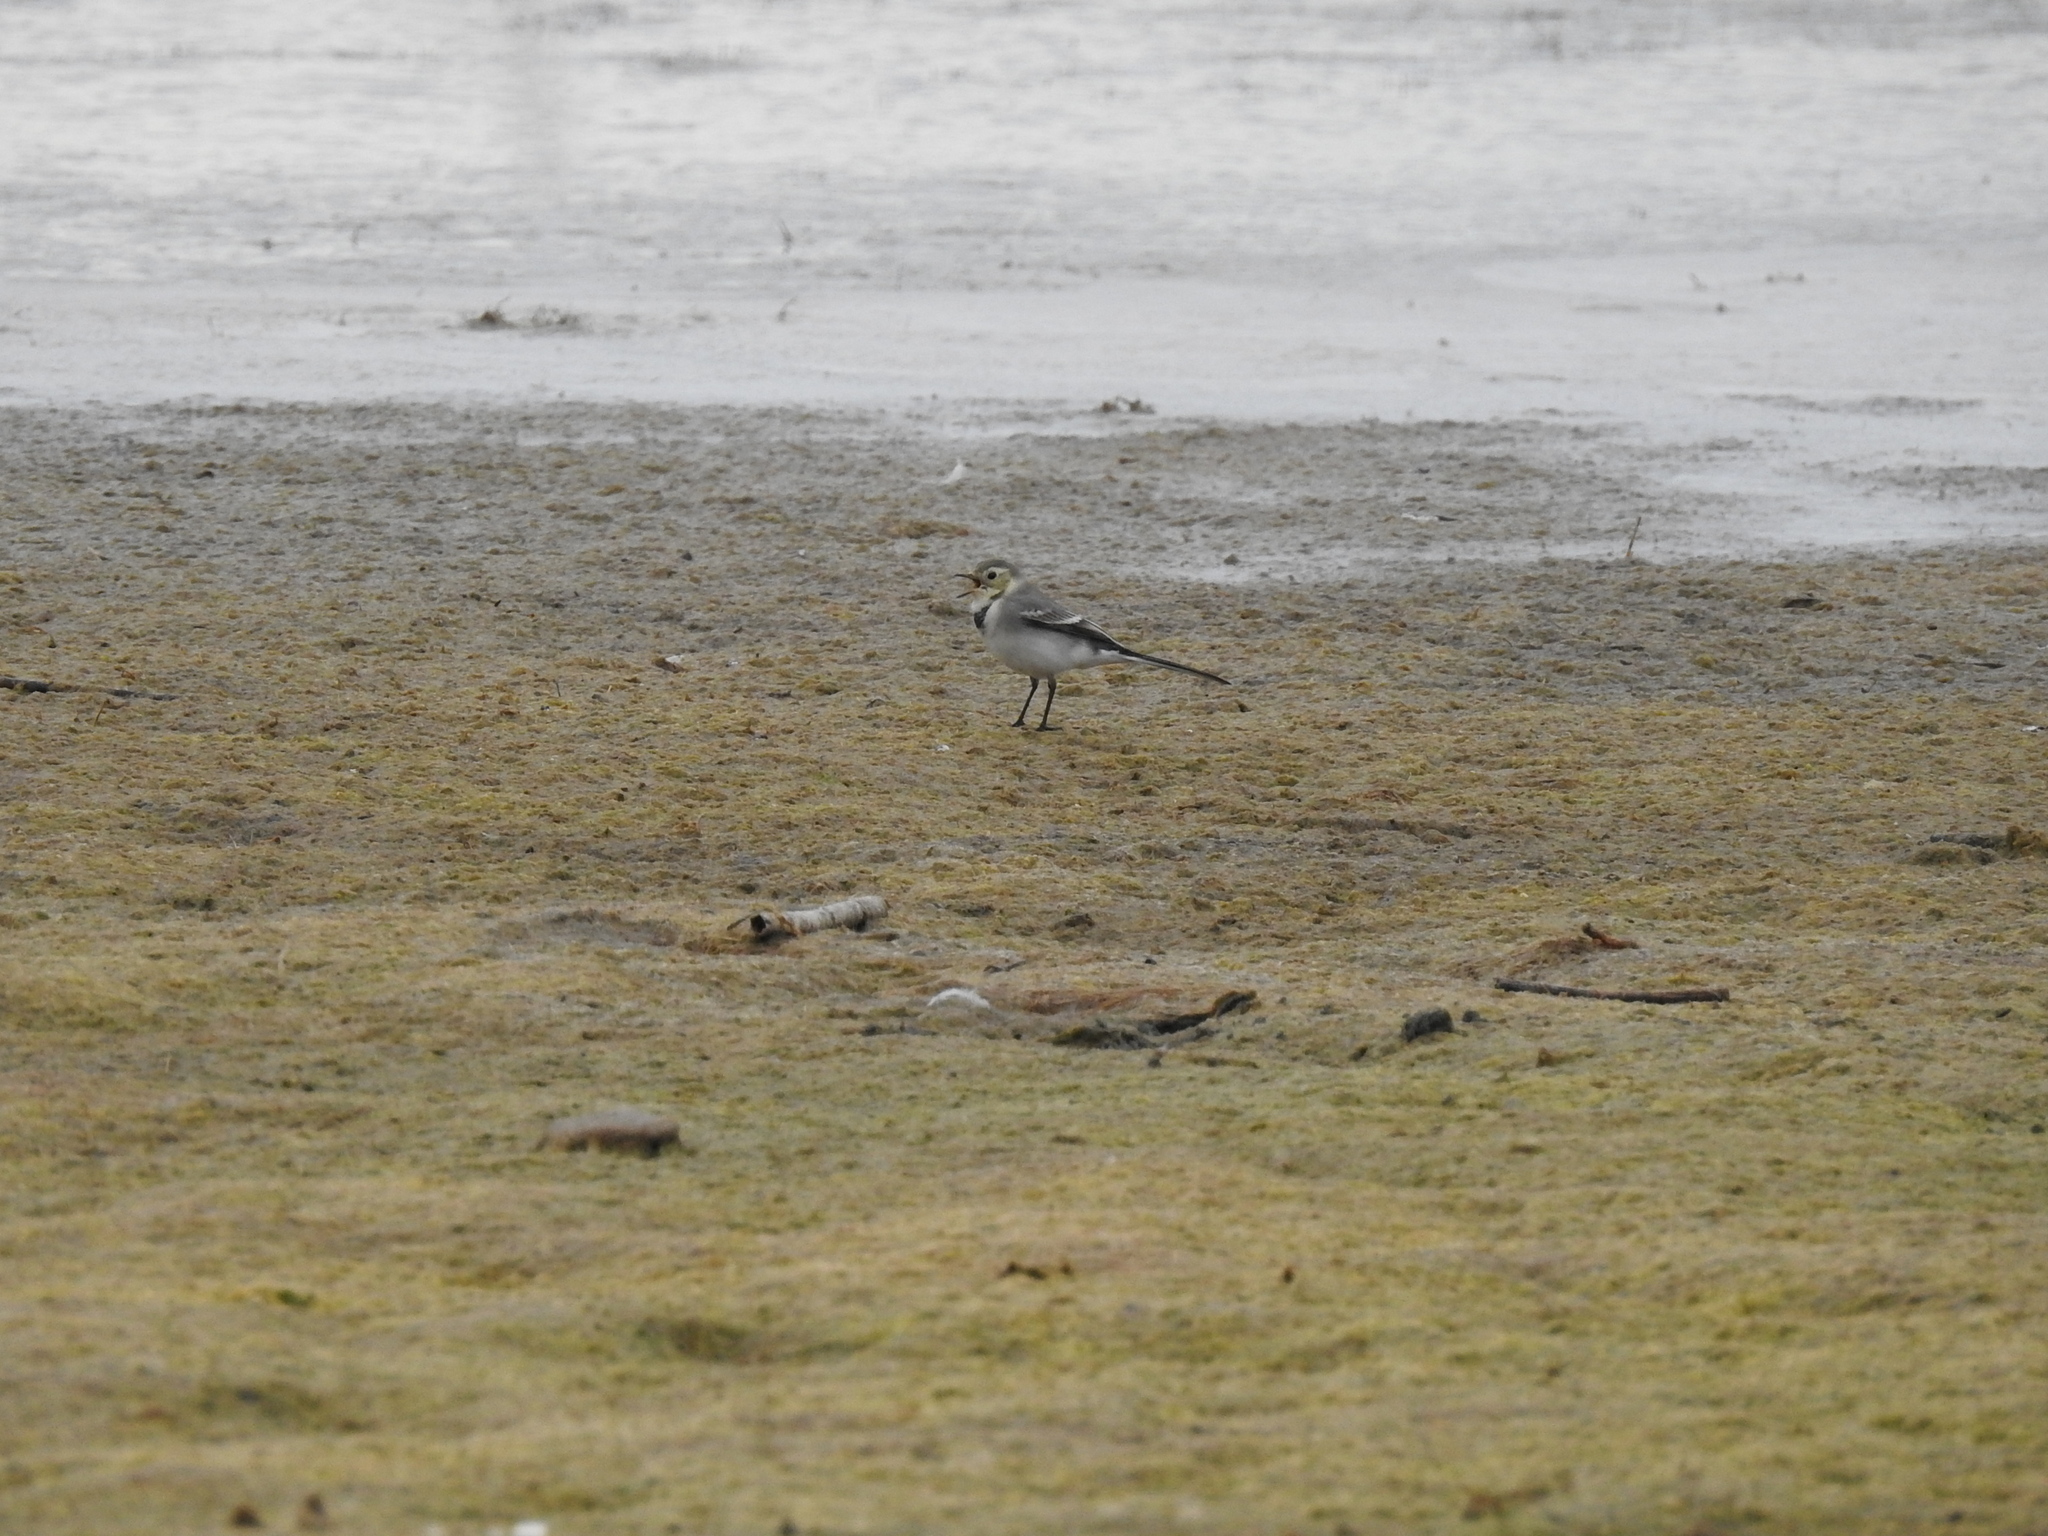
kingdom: Animalia
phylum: Chordata
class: Aves
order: Passeriformes
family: Motacillidae
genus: Motacilla
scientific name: Motacilla alba
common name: White wagtail
